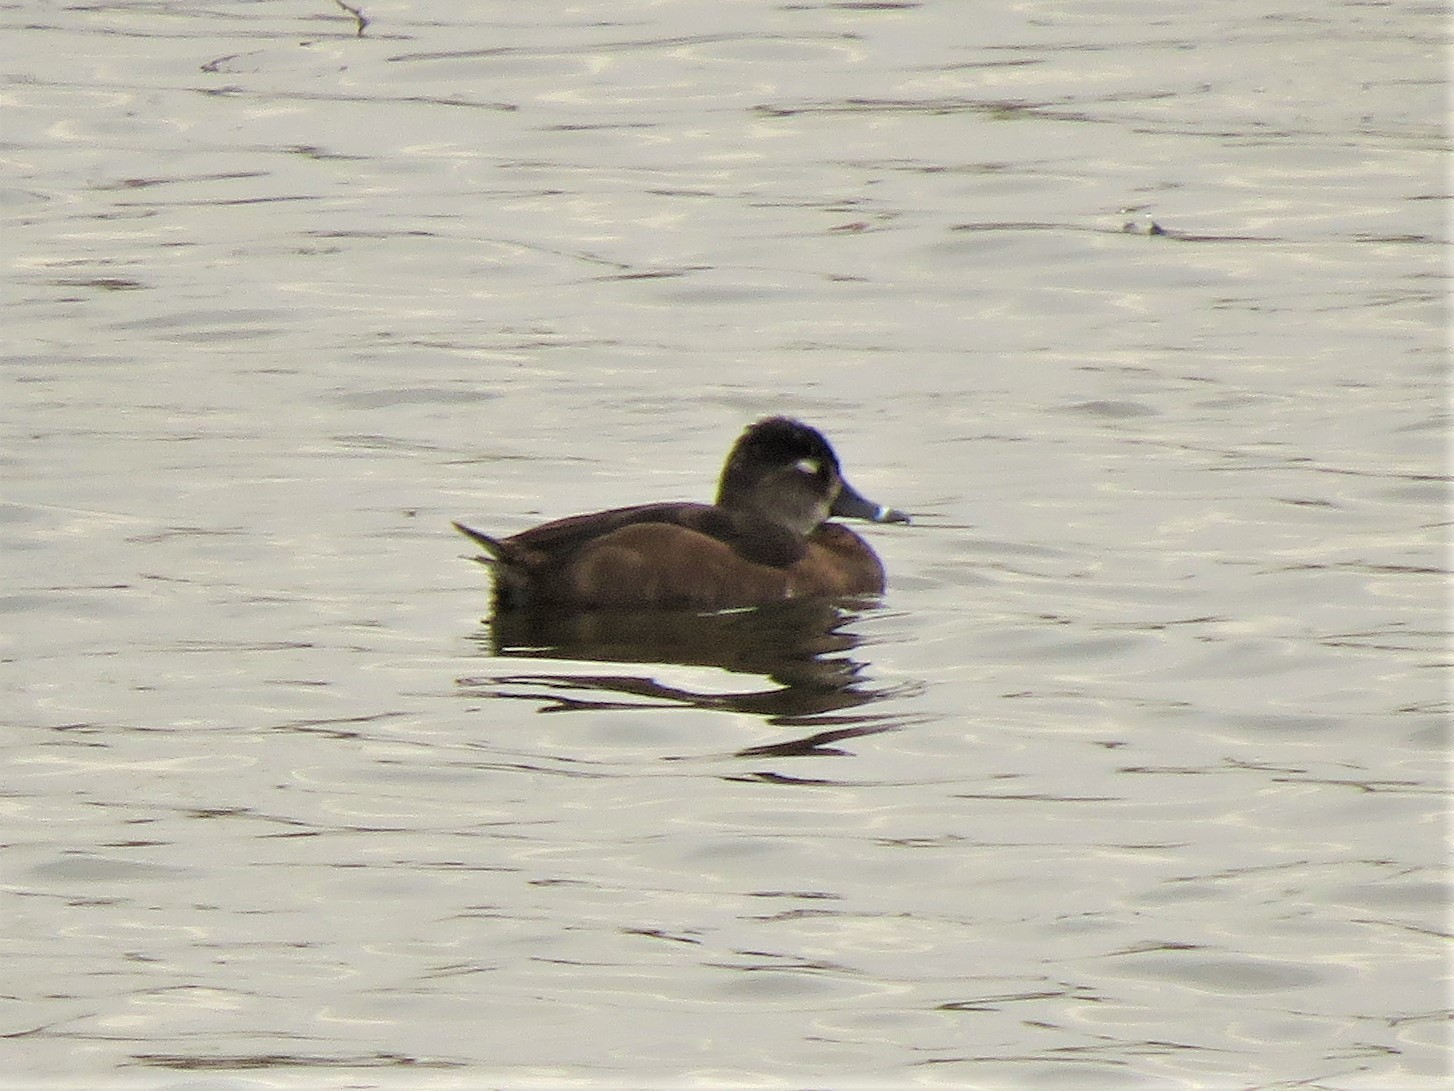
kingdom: Animalia
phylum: Chordata
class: Aves
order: Anseriformes
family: Anatidae
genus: Aythya
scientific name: Aythya collaris
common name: Ring-necked duck
